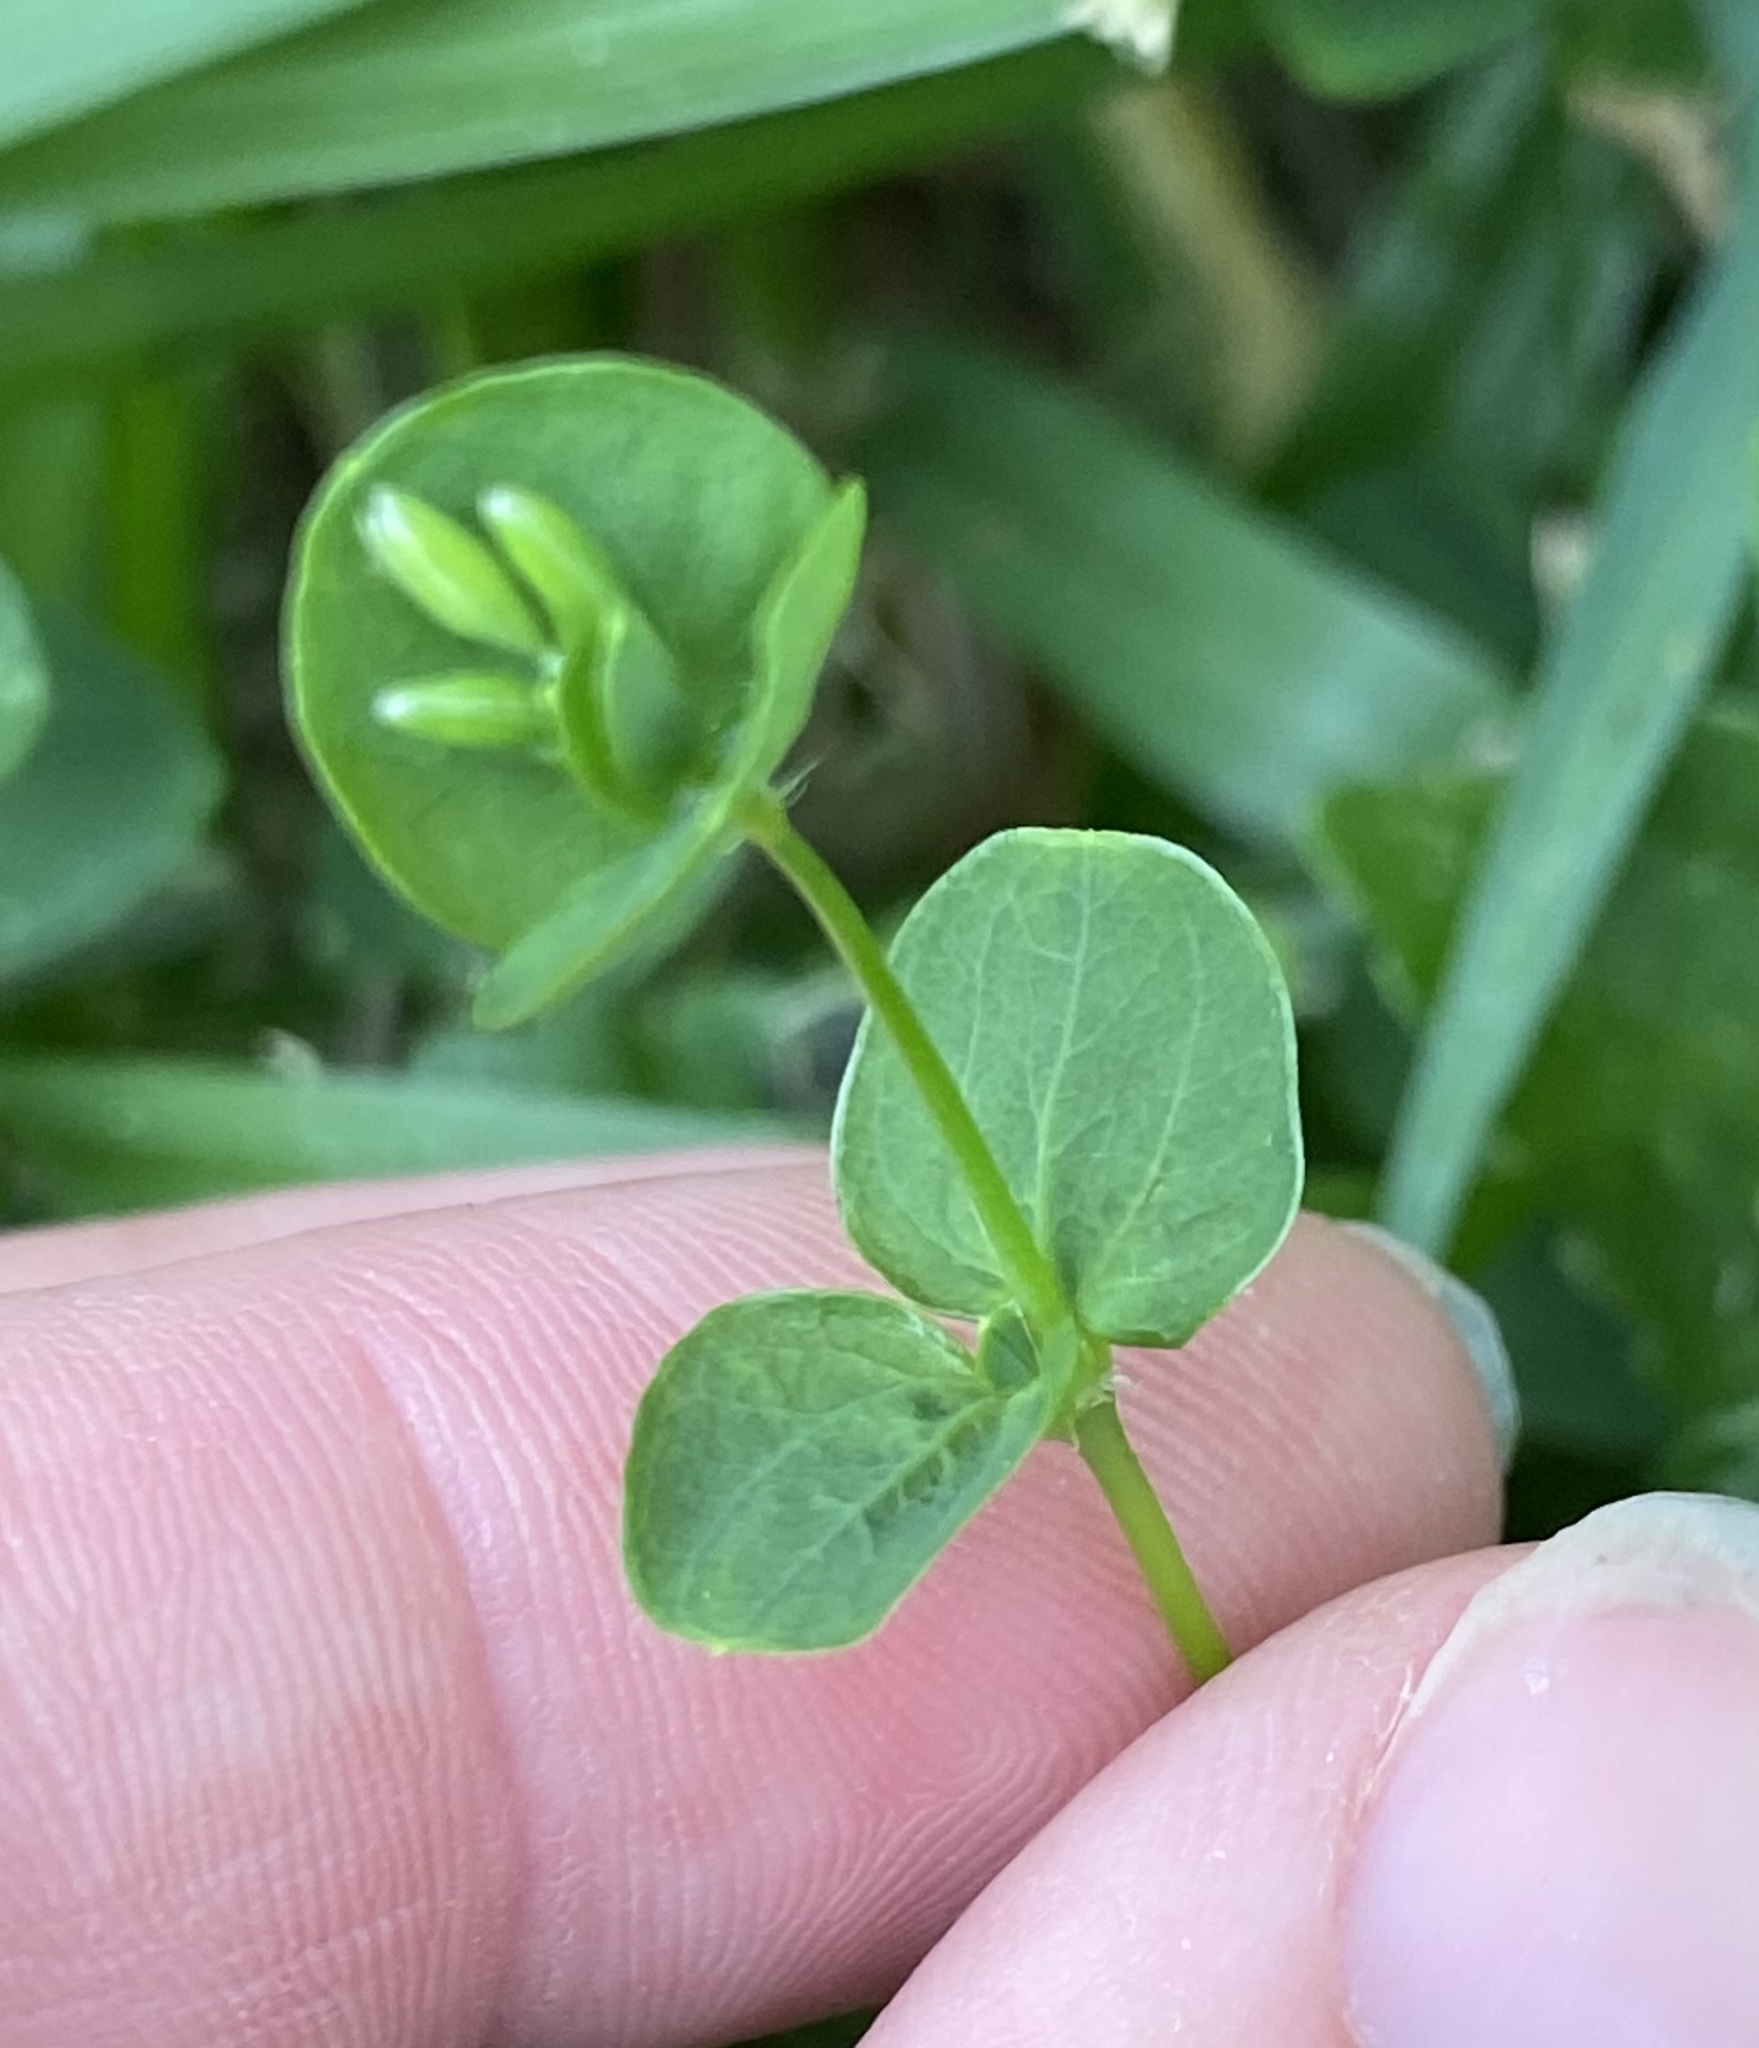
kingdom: Plantae
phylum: Tracheophyta
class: Magnoliopsida
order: Caryophyllales
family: Caryophyllaceae
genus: Drymaria
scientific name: Drymaria cordata
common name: Whitesnow
